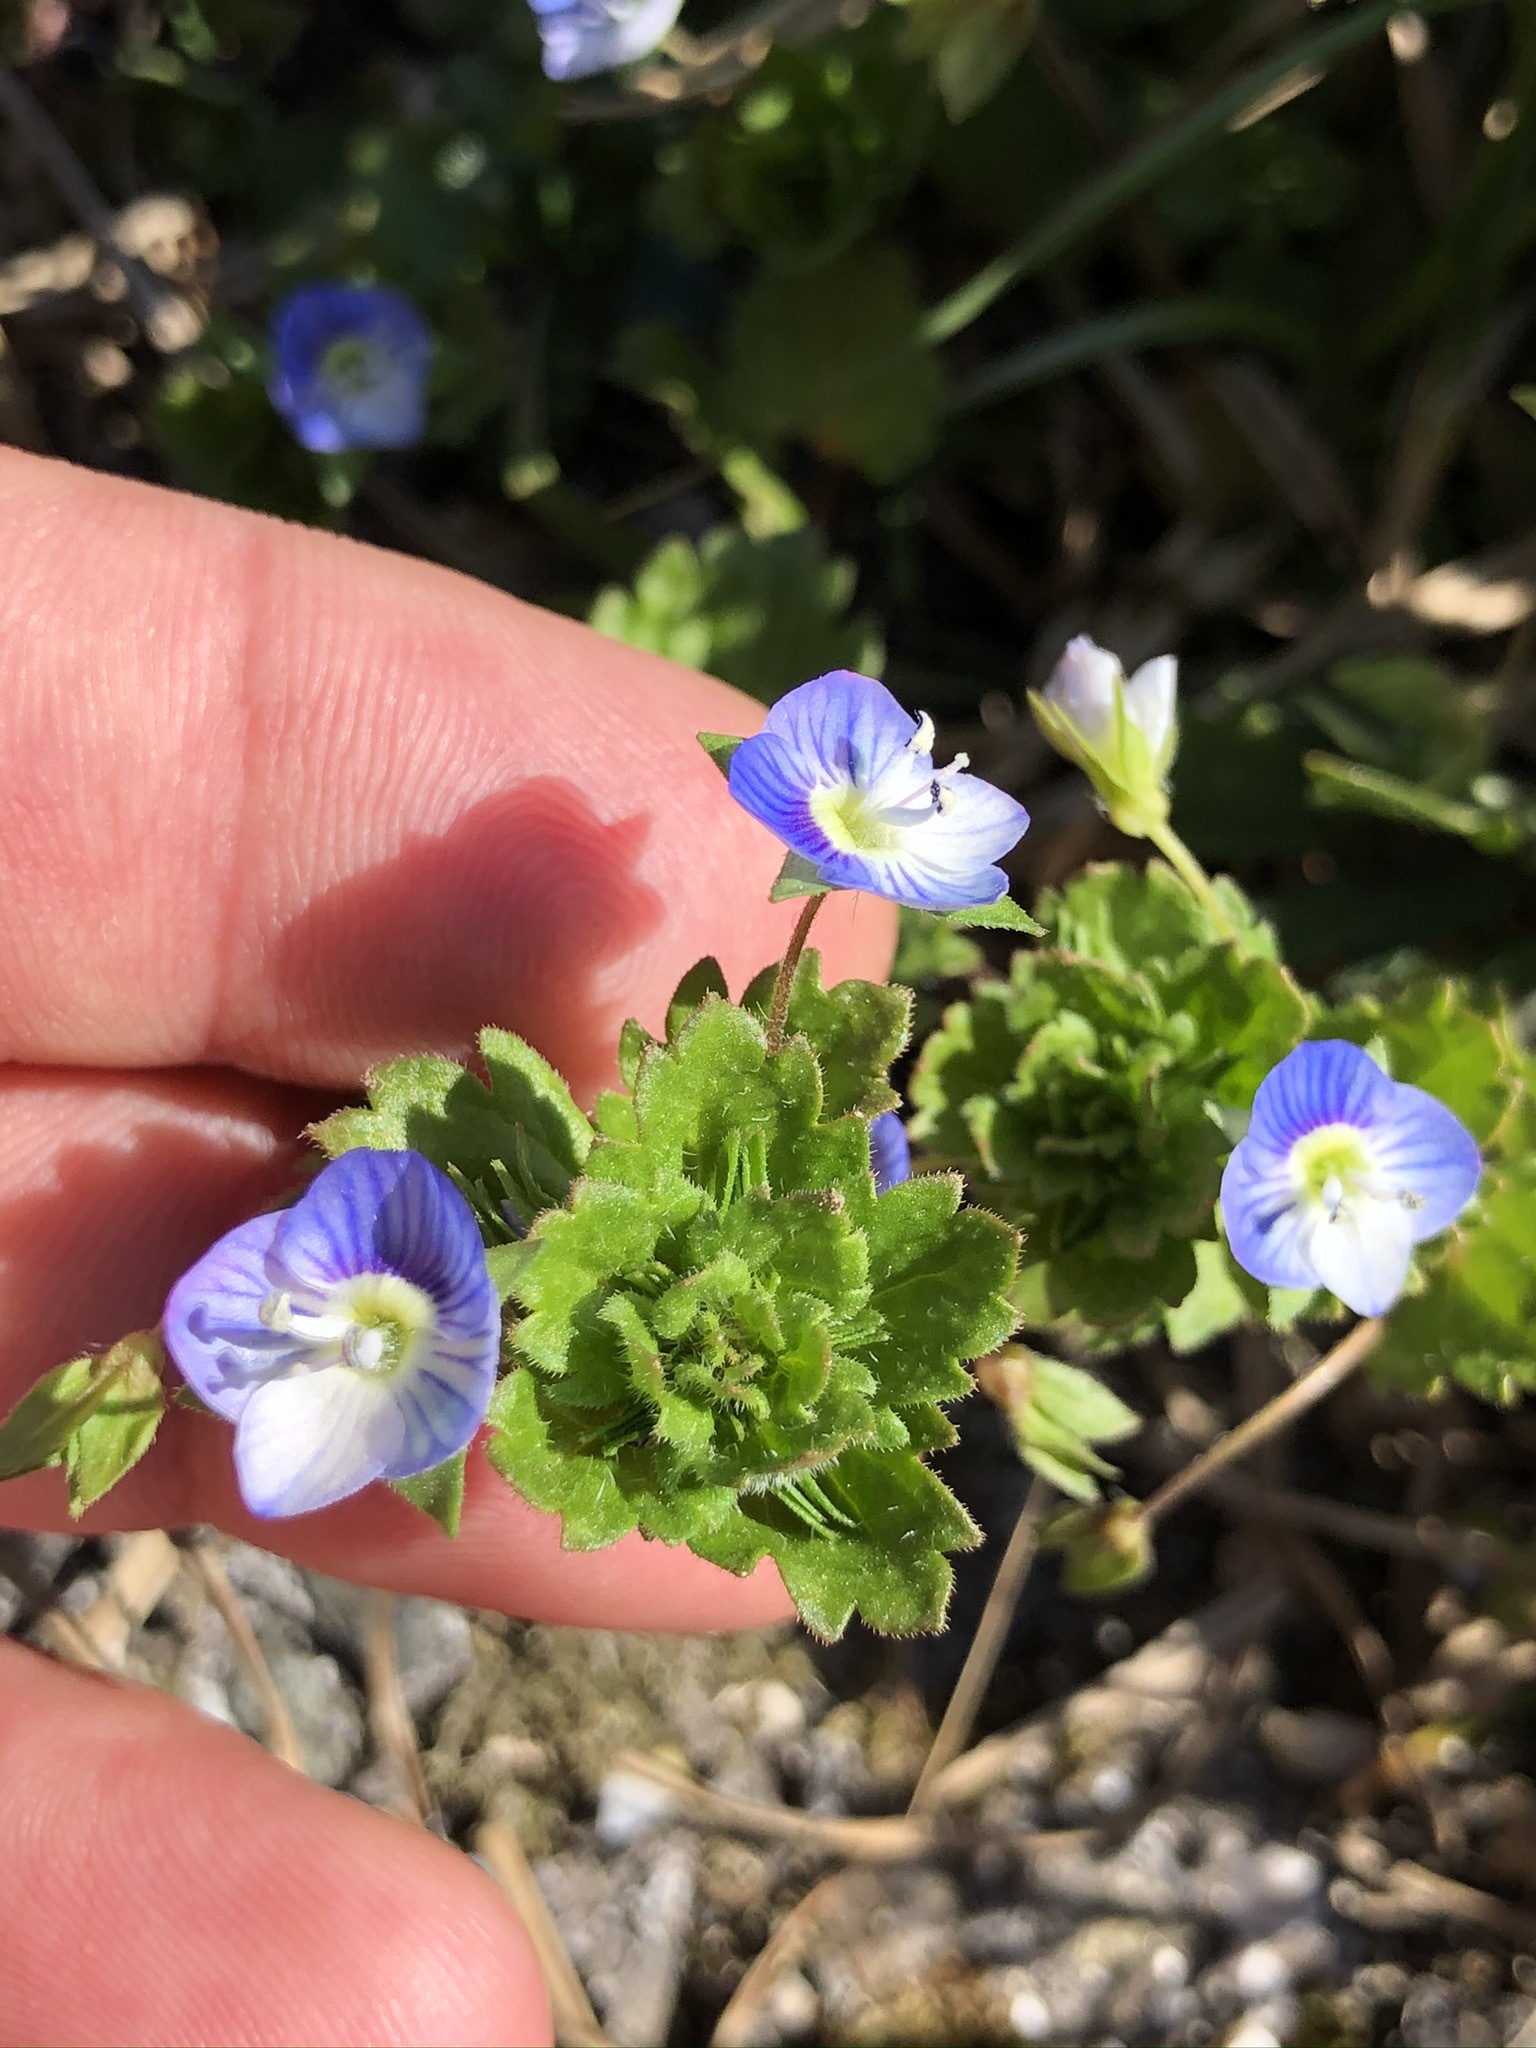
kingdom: Plantae
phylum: Tracheophyta
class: Magnoliopsida
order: Lamiales
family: Plantaginaceae
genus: Veronica
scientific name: Veronica persica
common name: Common field-speedwell
